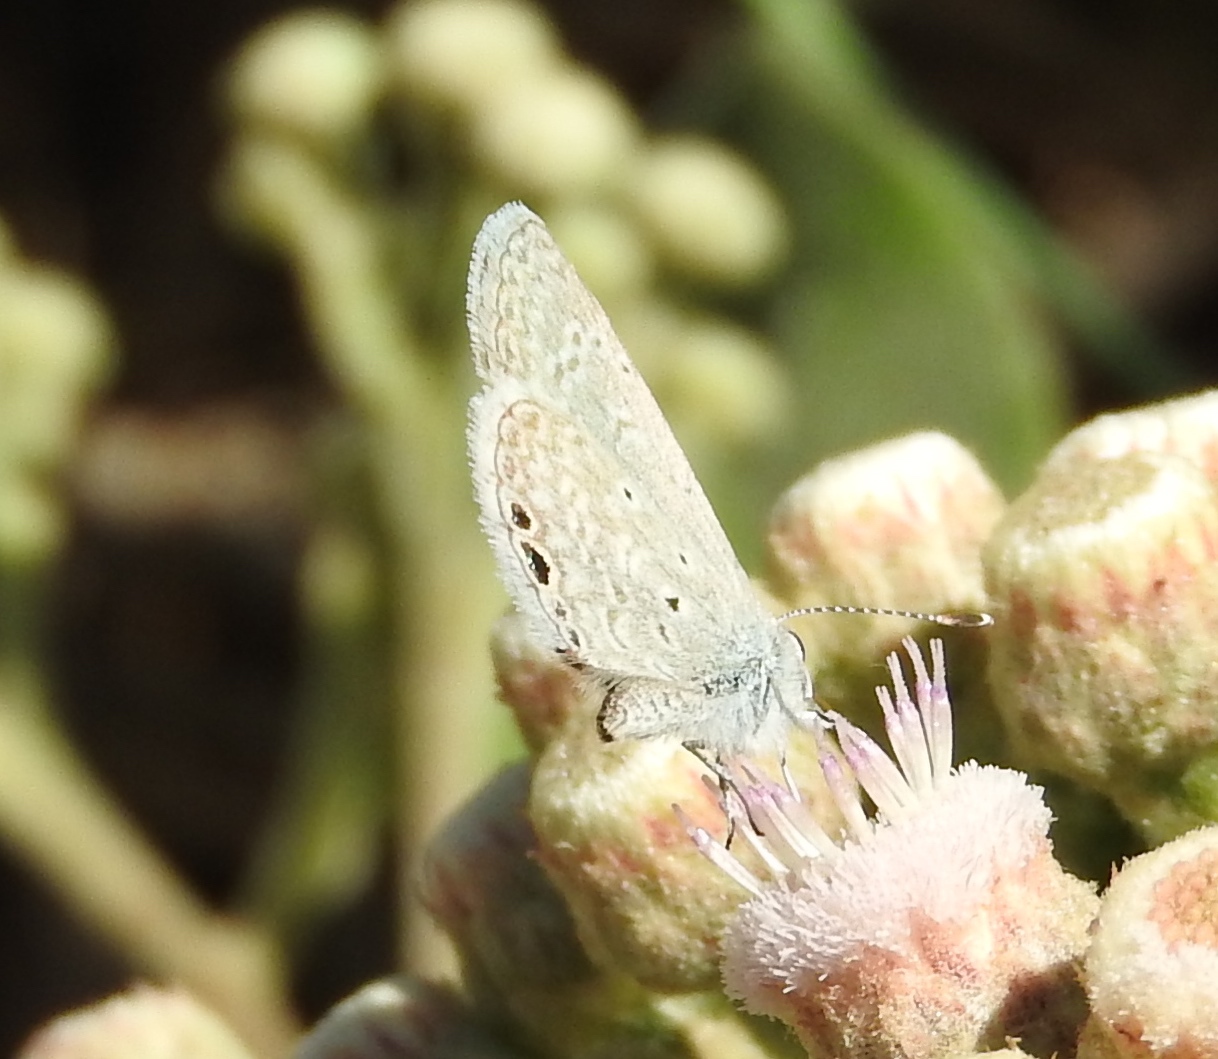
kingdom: Animalia
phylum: Arthropoda
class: Insecta
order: Lepidoptera
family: Lycaenidae
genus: Hemiargus
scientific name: Hemiargus ceraunus
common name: Ceraunus blue
